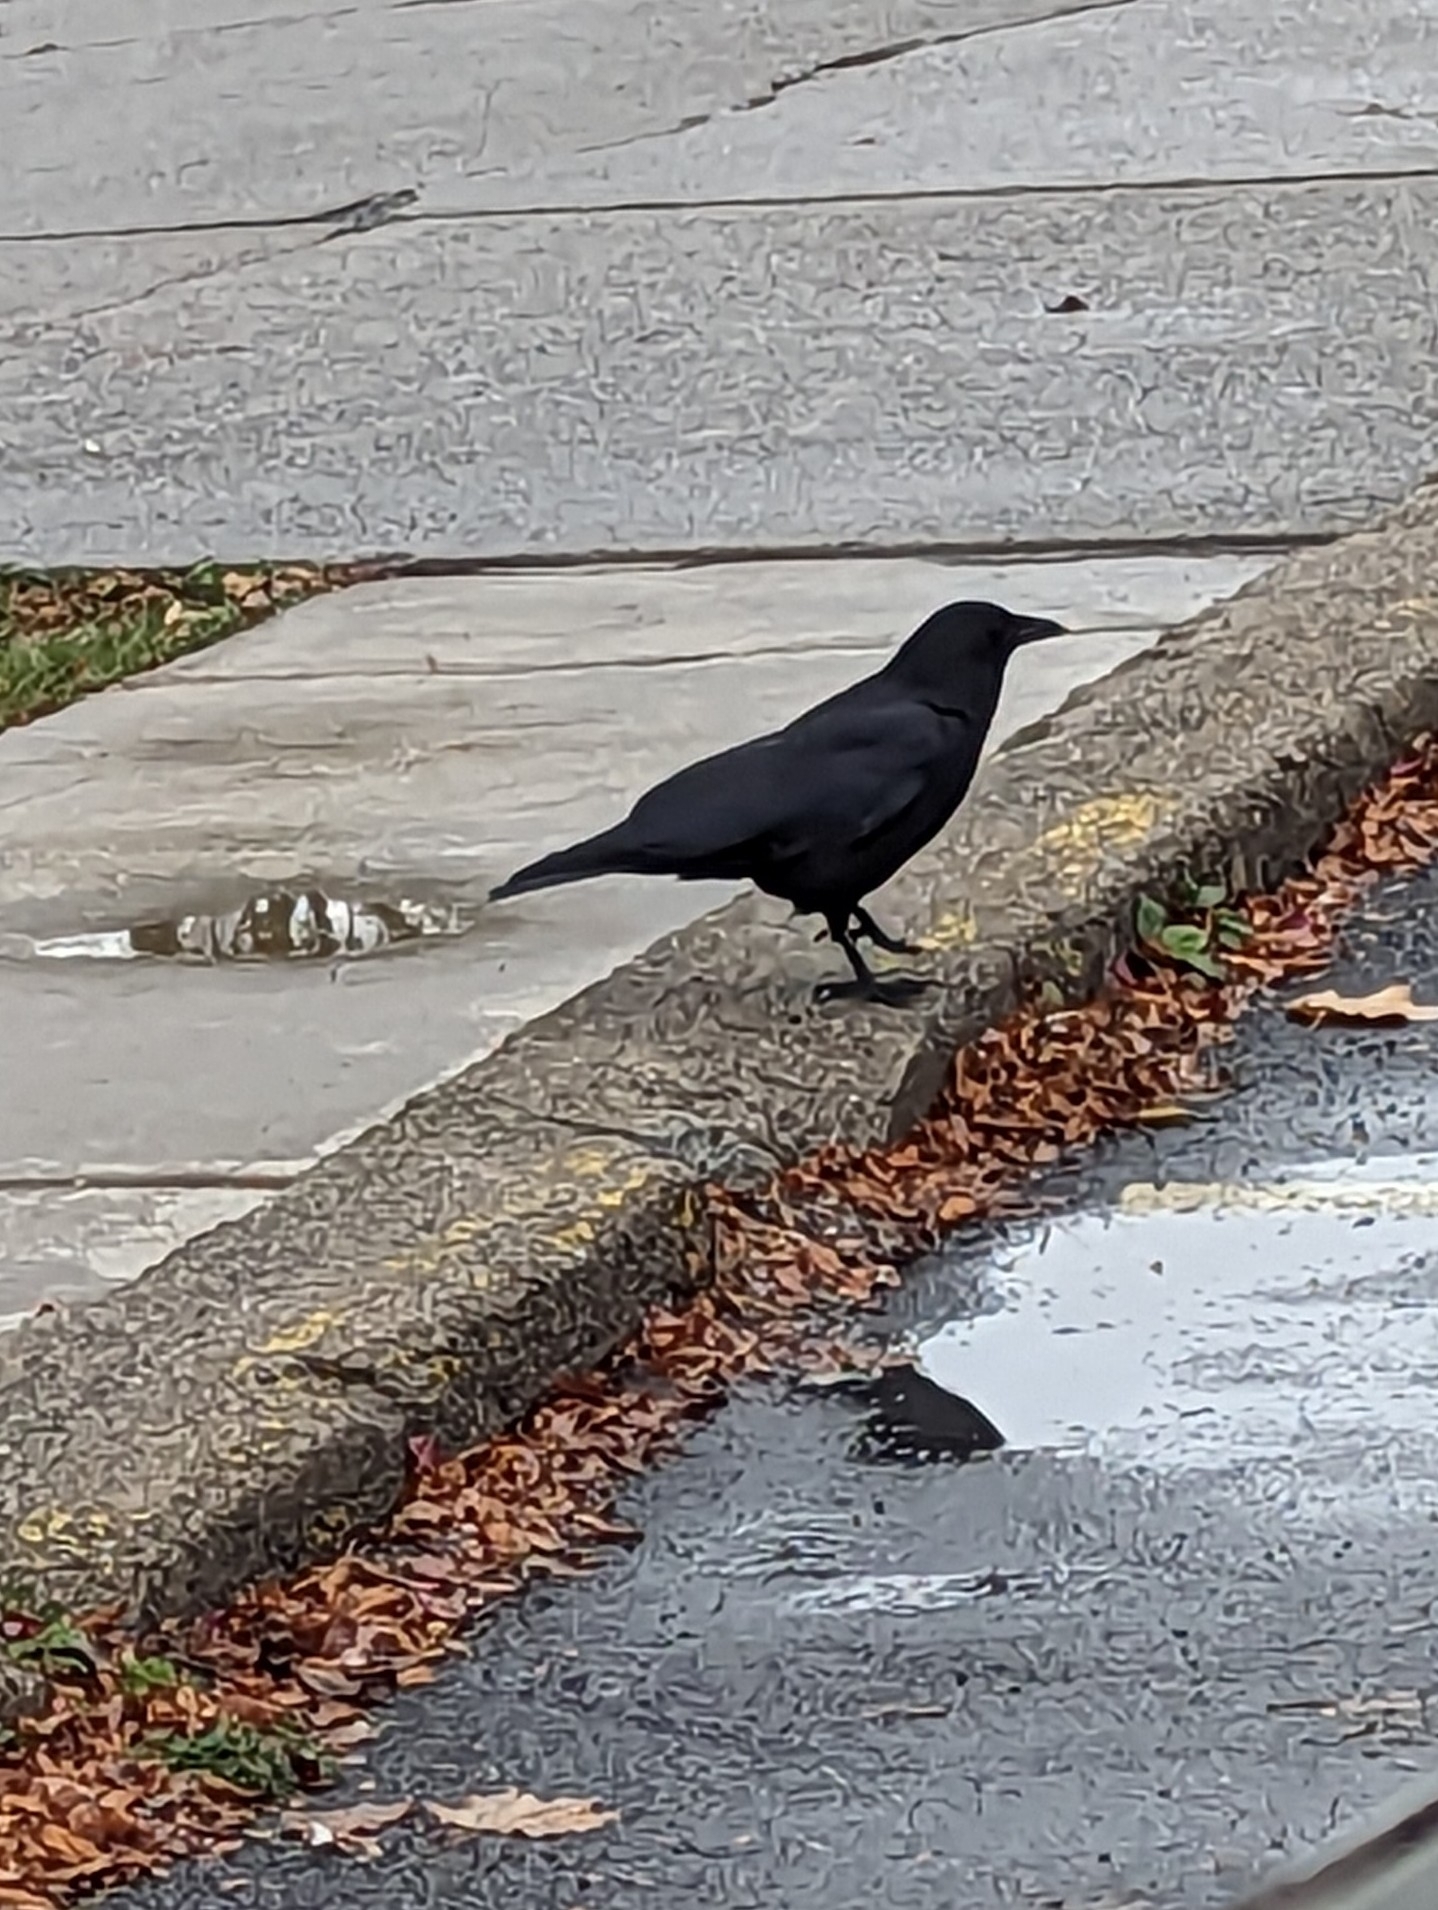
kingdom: Animalia
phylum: Chordata
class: Aves
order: Passeriformes
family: Corvidae
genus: Corvus
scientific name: Corvus brachyrhynchos
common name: American crow
